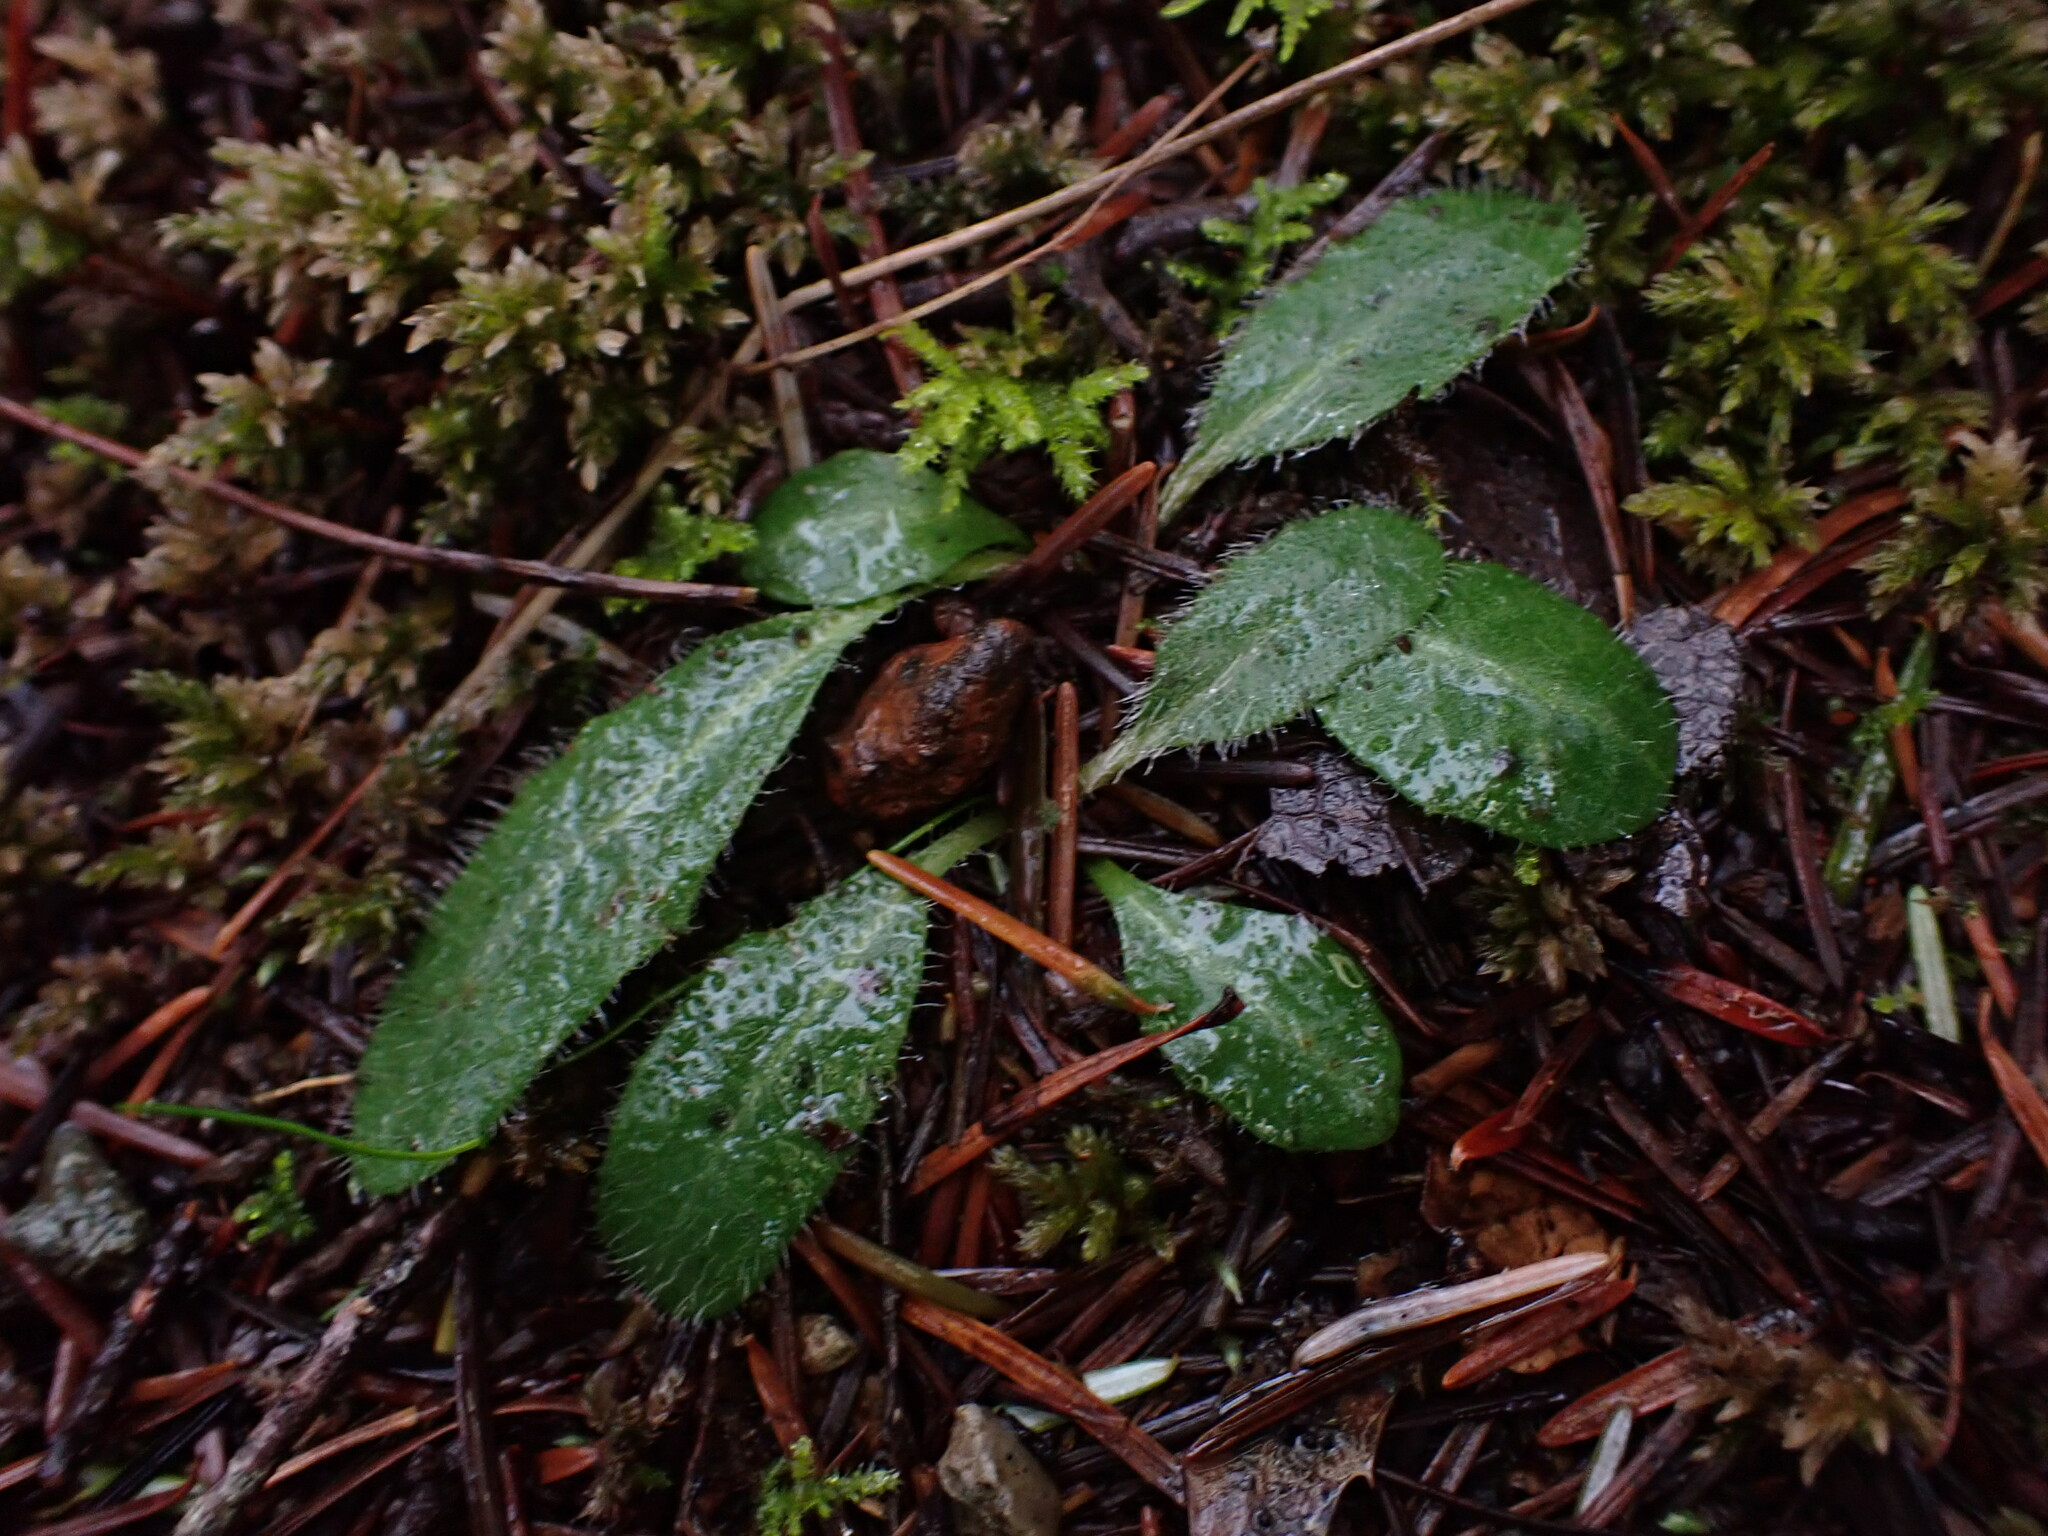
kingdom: Plantae
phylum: Tracheophyta
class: Magnoliopsida
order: Asterales
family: Asteraceae
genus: Hieracium
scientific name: Hieracium albiflorum
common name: White hawkweed
